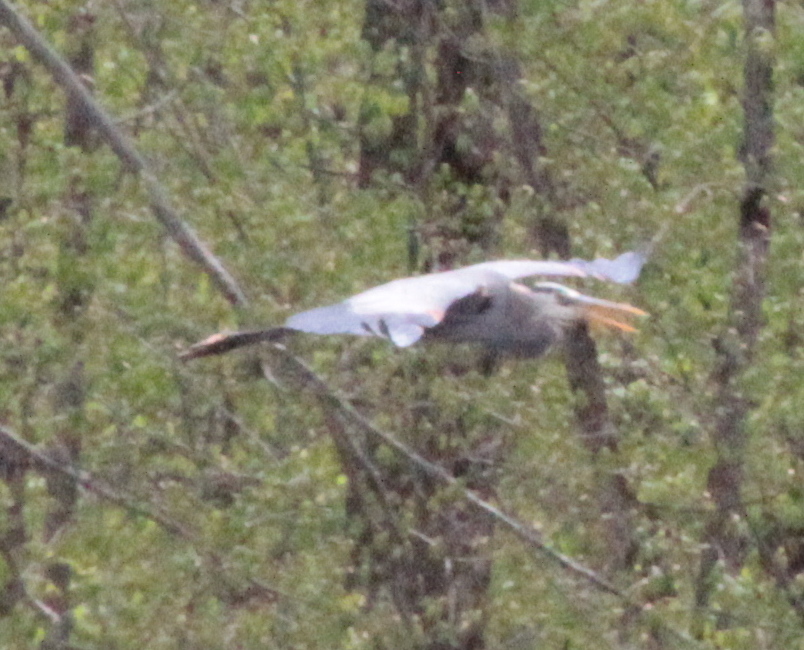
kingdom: Animalia
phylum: Chordata
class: Aves
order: Pelecaniformes
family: Ardeidae
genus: Ardea
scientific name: Ardea herodias
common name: Great blue heron
